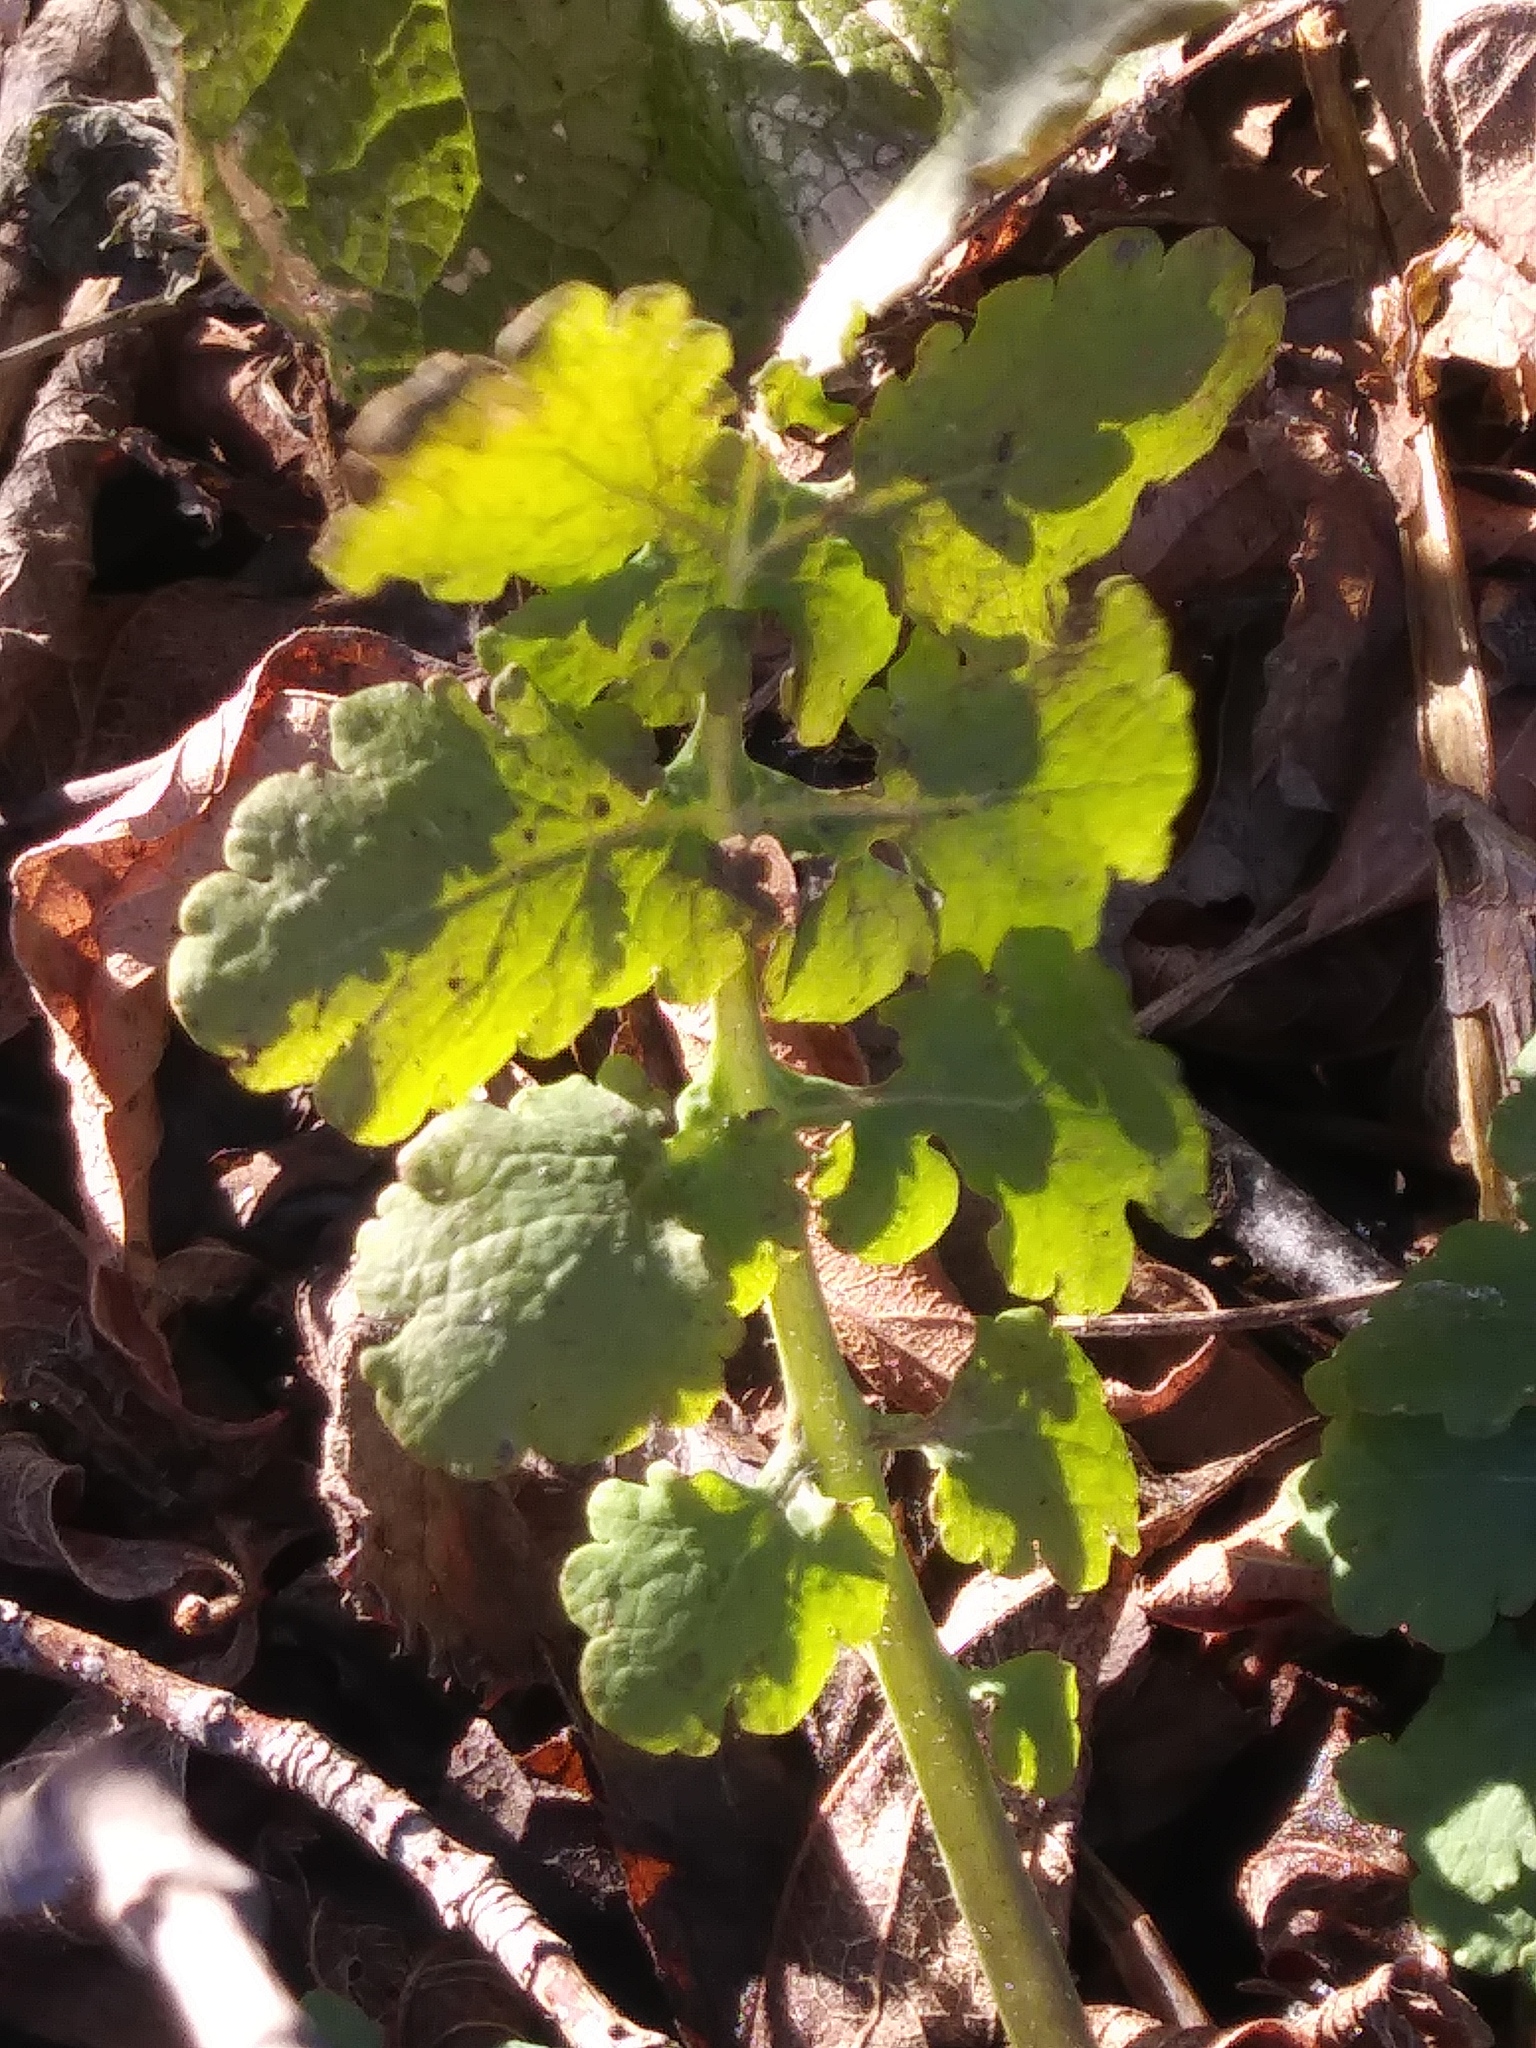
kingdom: Plantae
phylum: Tracheophyta
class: Magnoliopsida
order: Ranunculales
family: Papaveraceae
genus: Chelidonium
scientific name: Chelidonium majus
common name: Greater celandine
